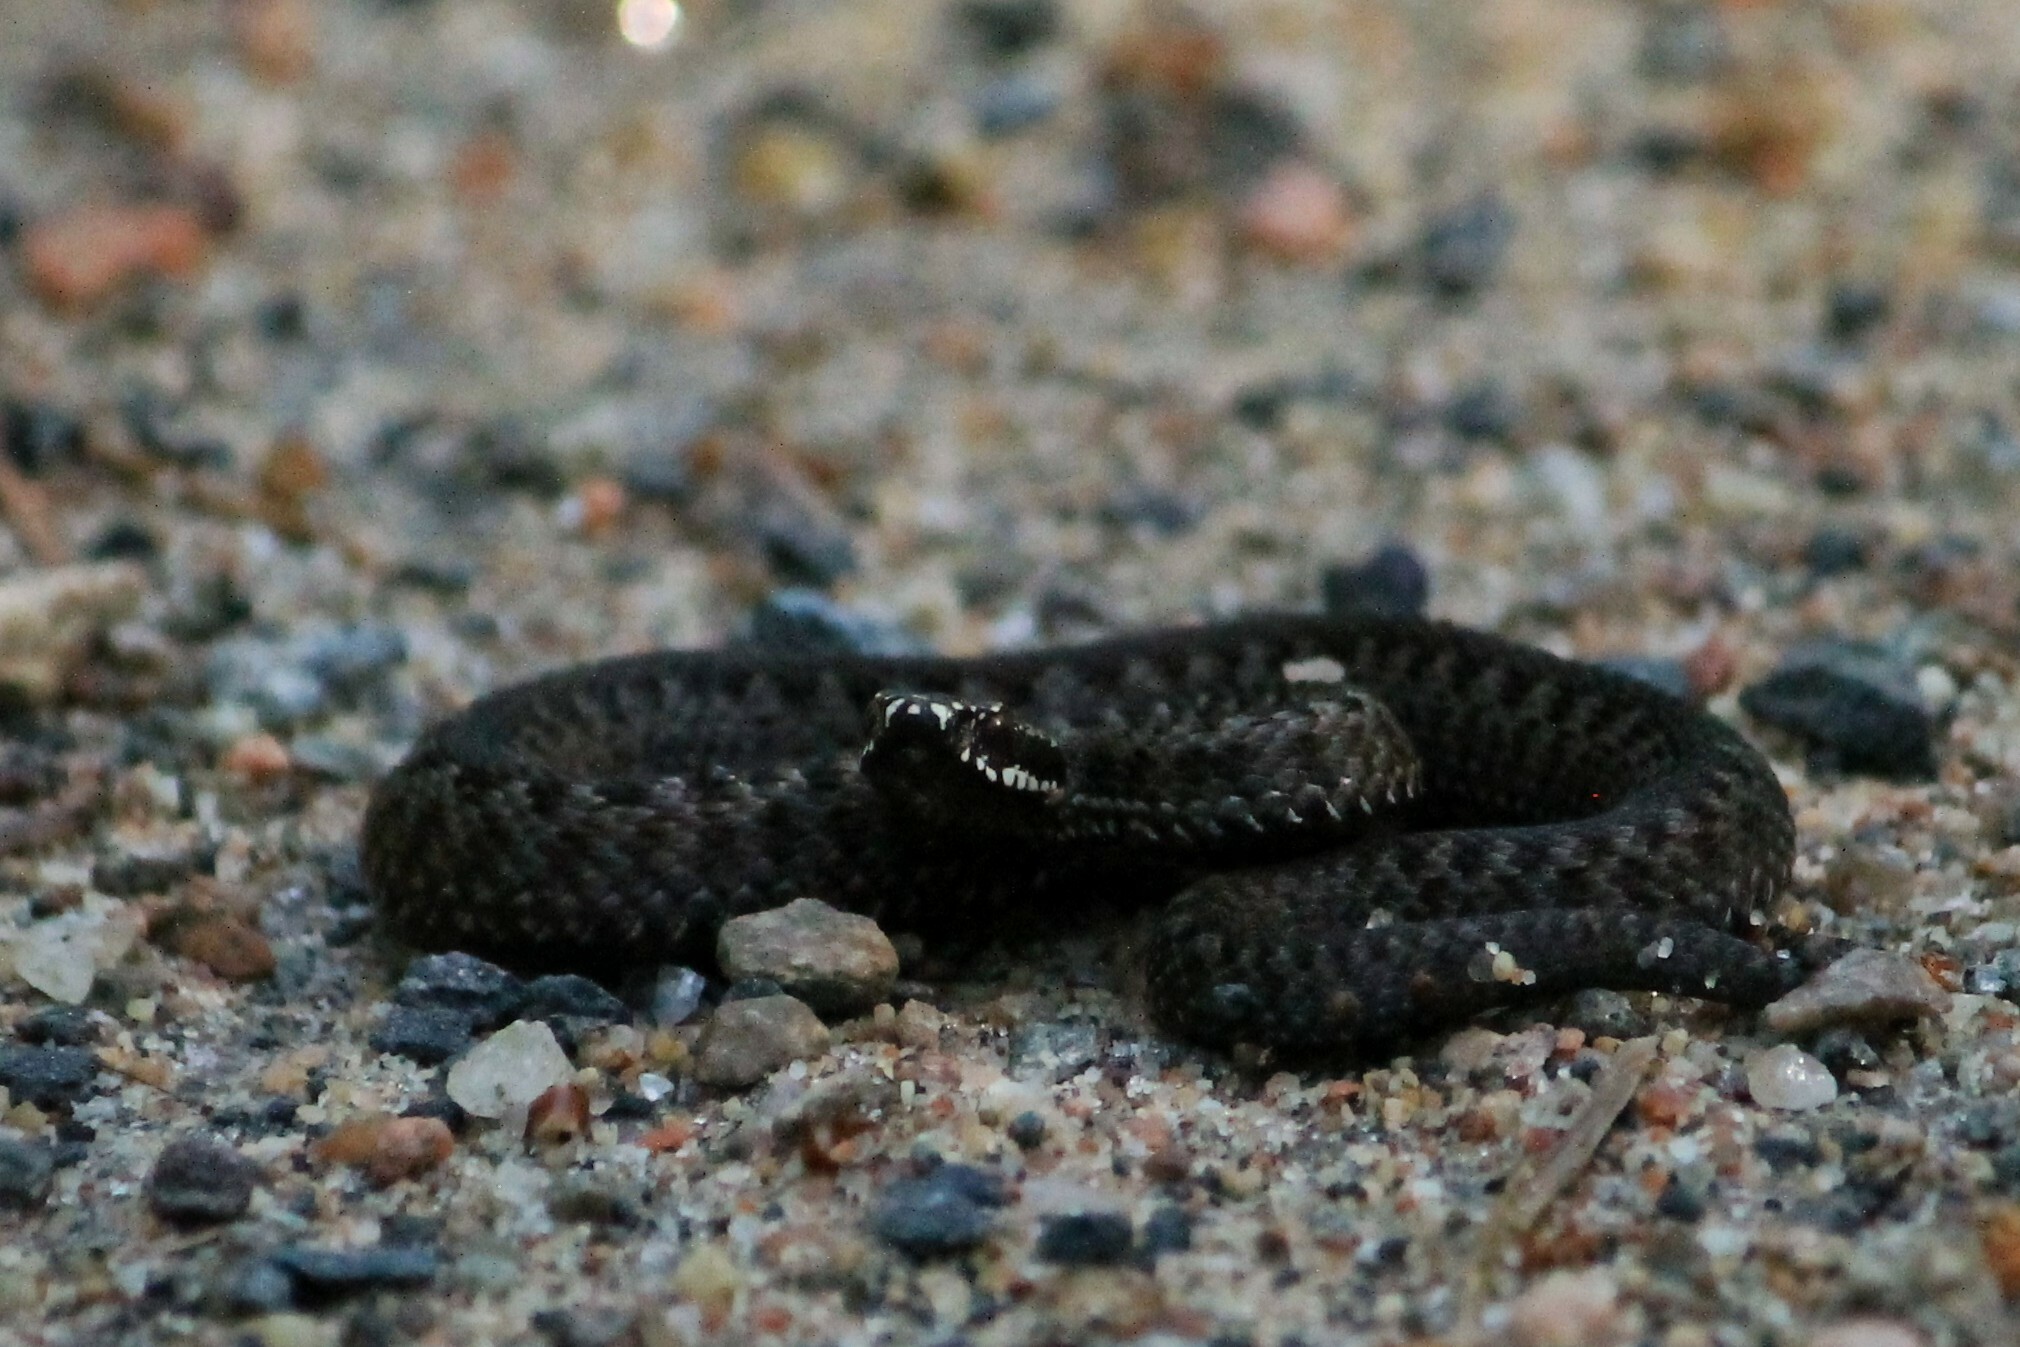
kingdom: Animalia
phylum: Chordata
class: Squamata
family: Viperidae
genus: Vipera
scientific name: Vipera berus
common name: Adder
